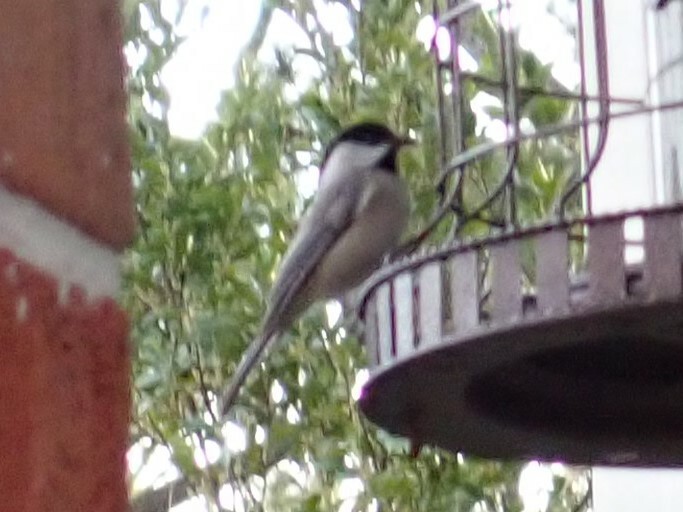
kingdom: Animalia
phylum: Chordata
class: Aves
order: Passeriformes
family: Paridae
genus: Poecile
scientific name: Poecile carolinensis
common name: Carolina chickadee
